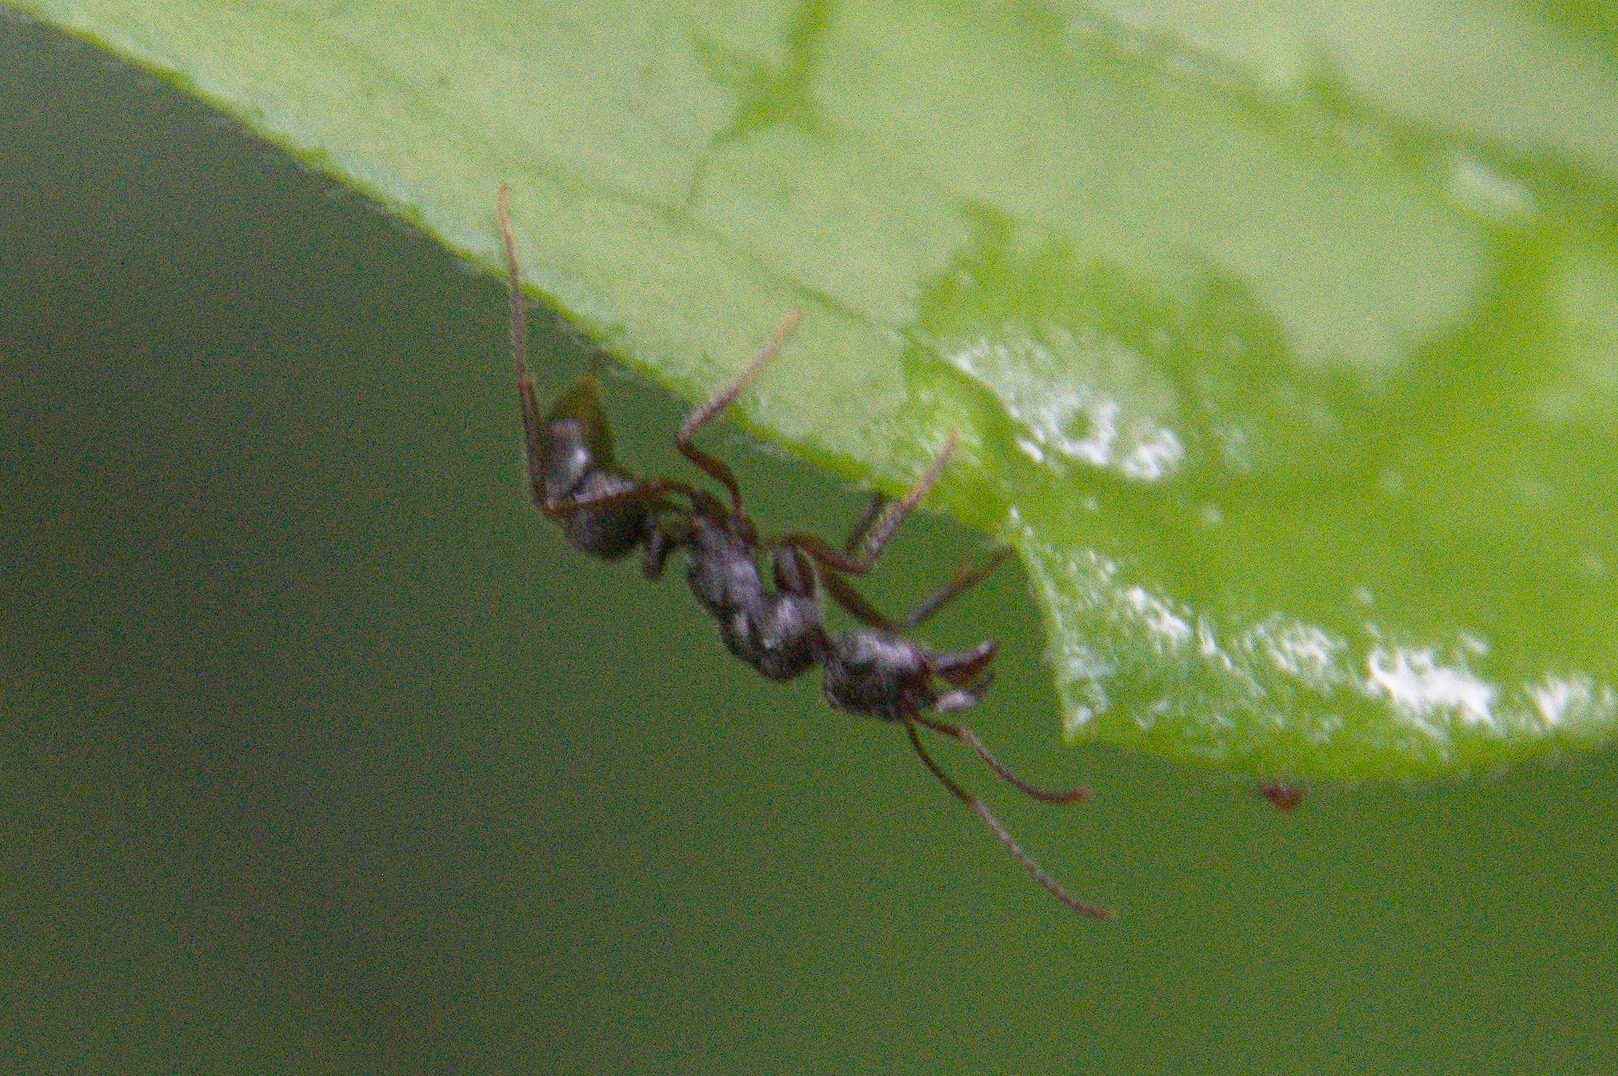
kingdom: Animalia
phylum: Arthropoda
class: Insecta
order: Hymenoptera
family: Formicidae
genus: Ectatomma
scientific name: Ectatomma ruidum
